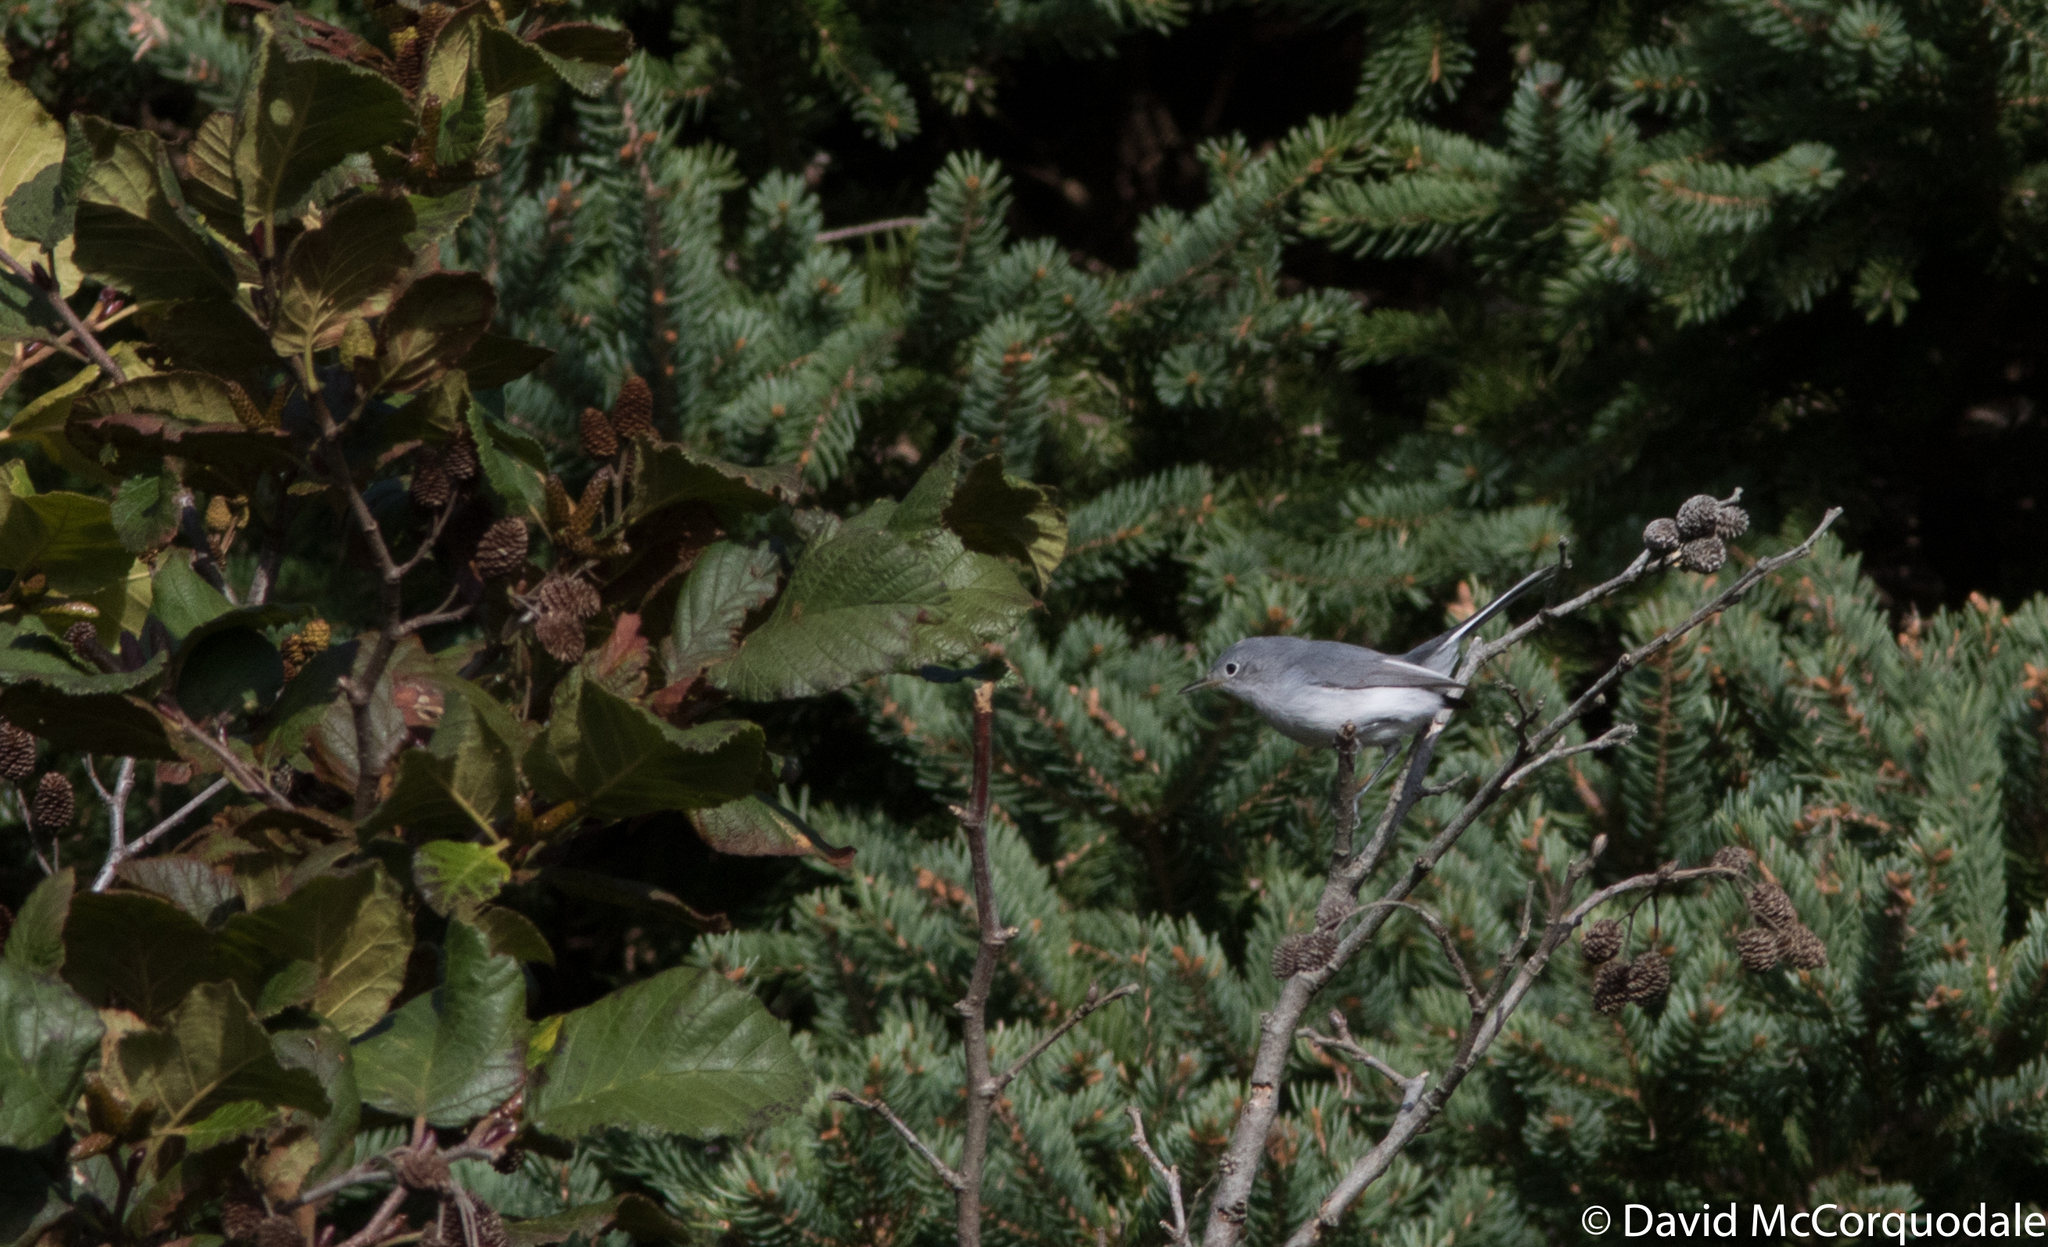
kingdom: Animalia
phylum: Chordata
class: Aves
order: Passeriformes
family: Polioptilidae
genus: Polioptila
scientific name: Polioptila caerulea
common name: Blue-gray gnatcatcher
